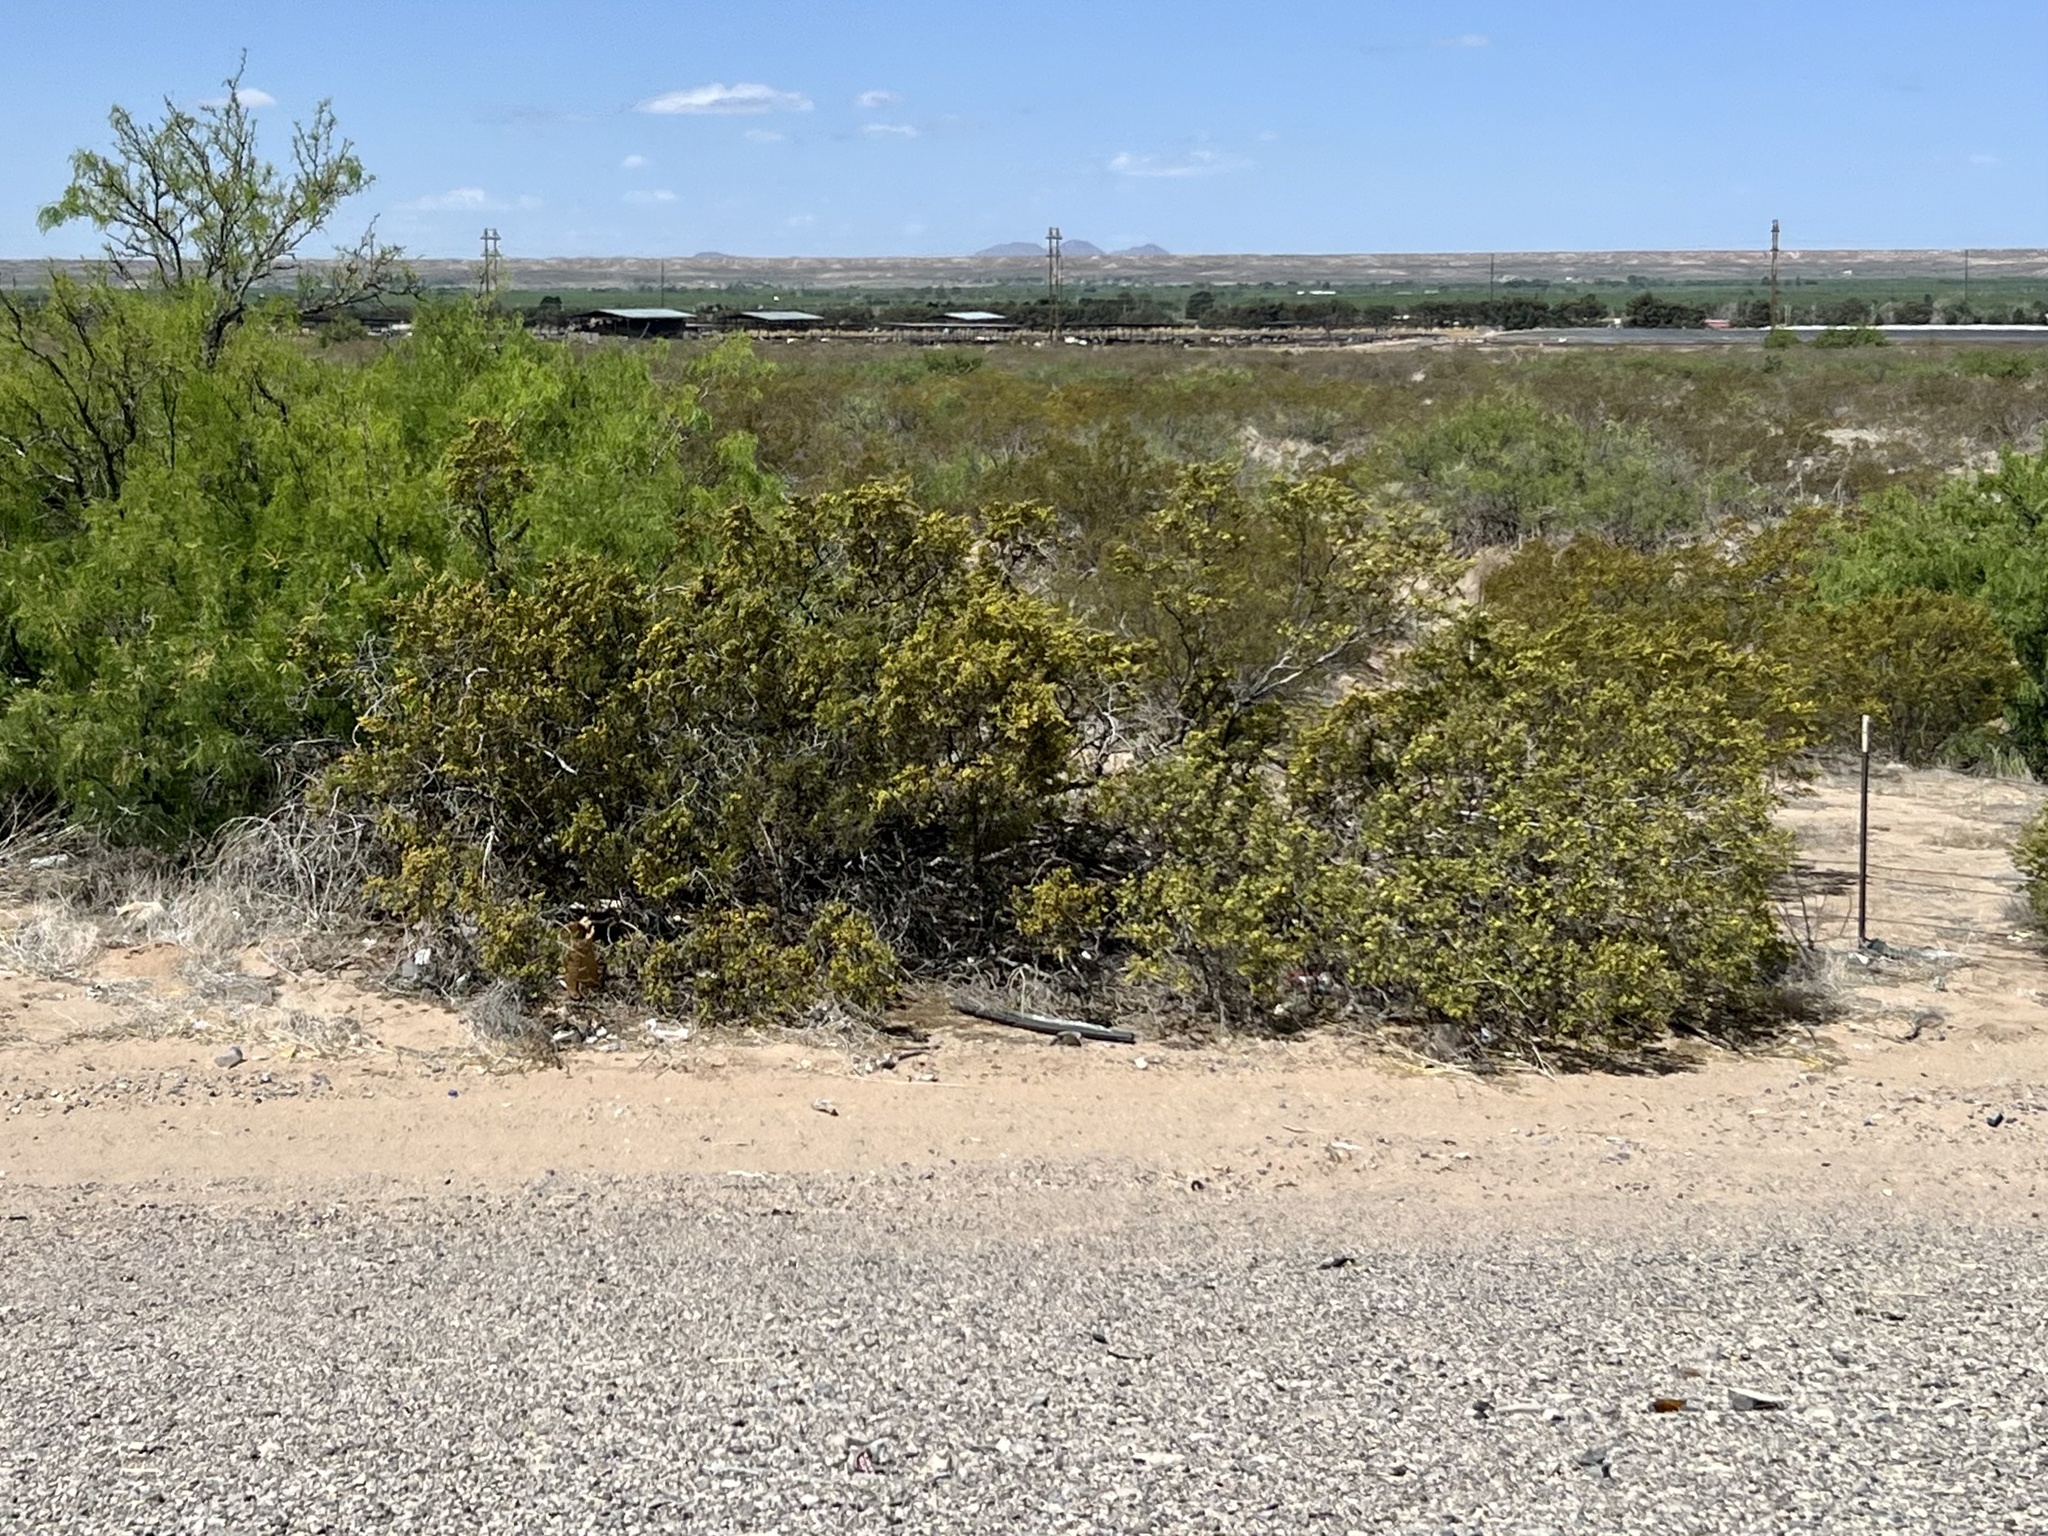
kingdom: Plantae
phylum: Tracheophyta
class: Magnoliopsida
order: Zygophyllales
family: Zygophyllaceae
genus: Larrea
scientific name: Larrea tridentata
